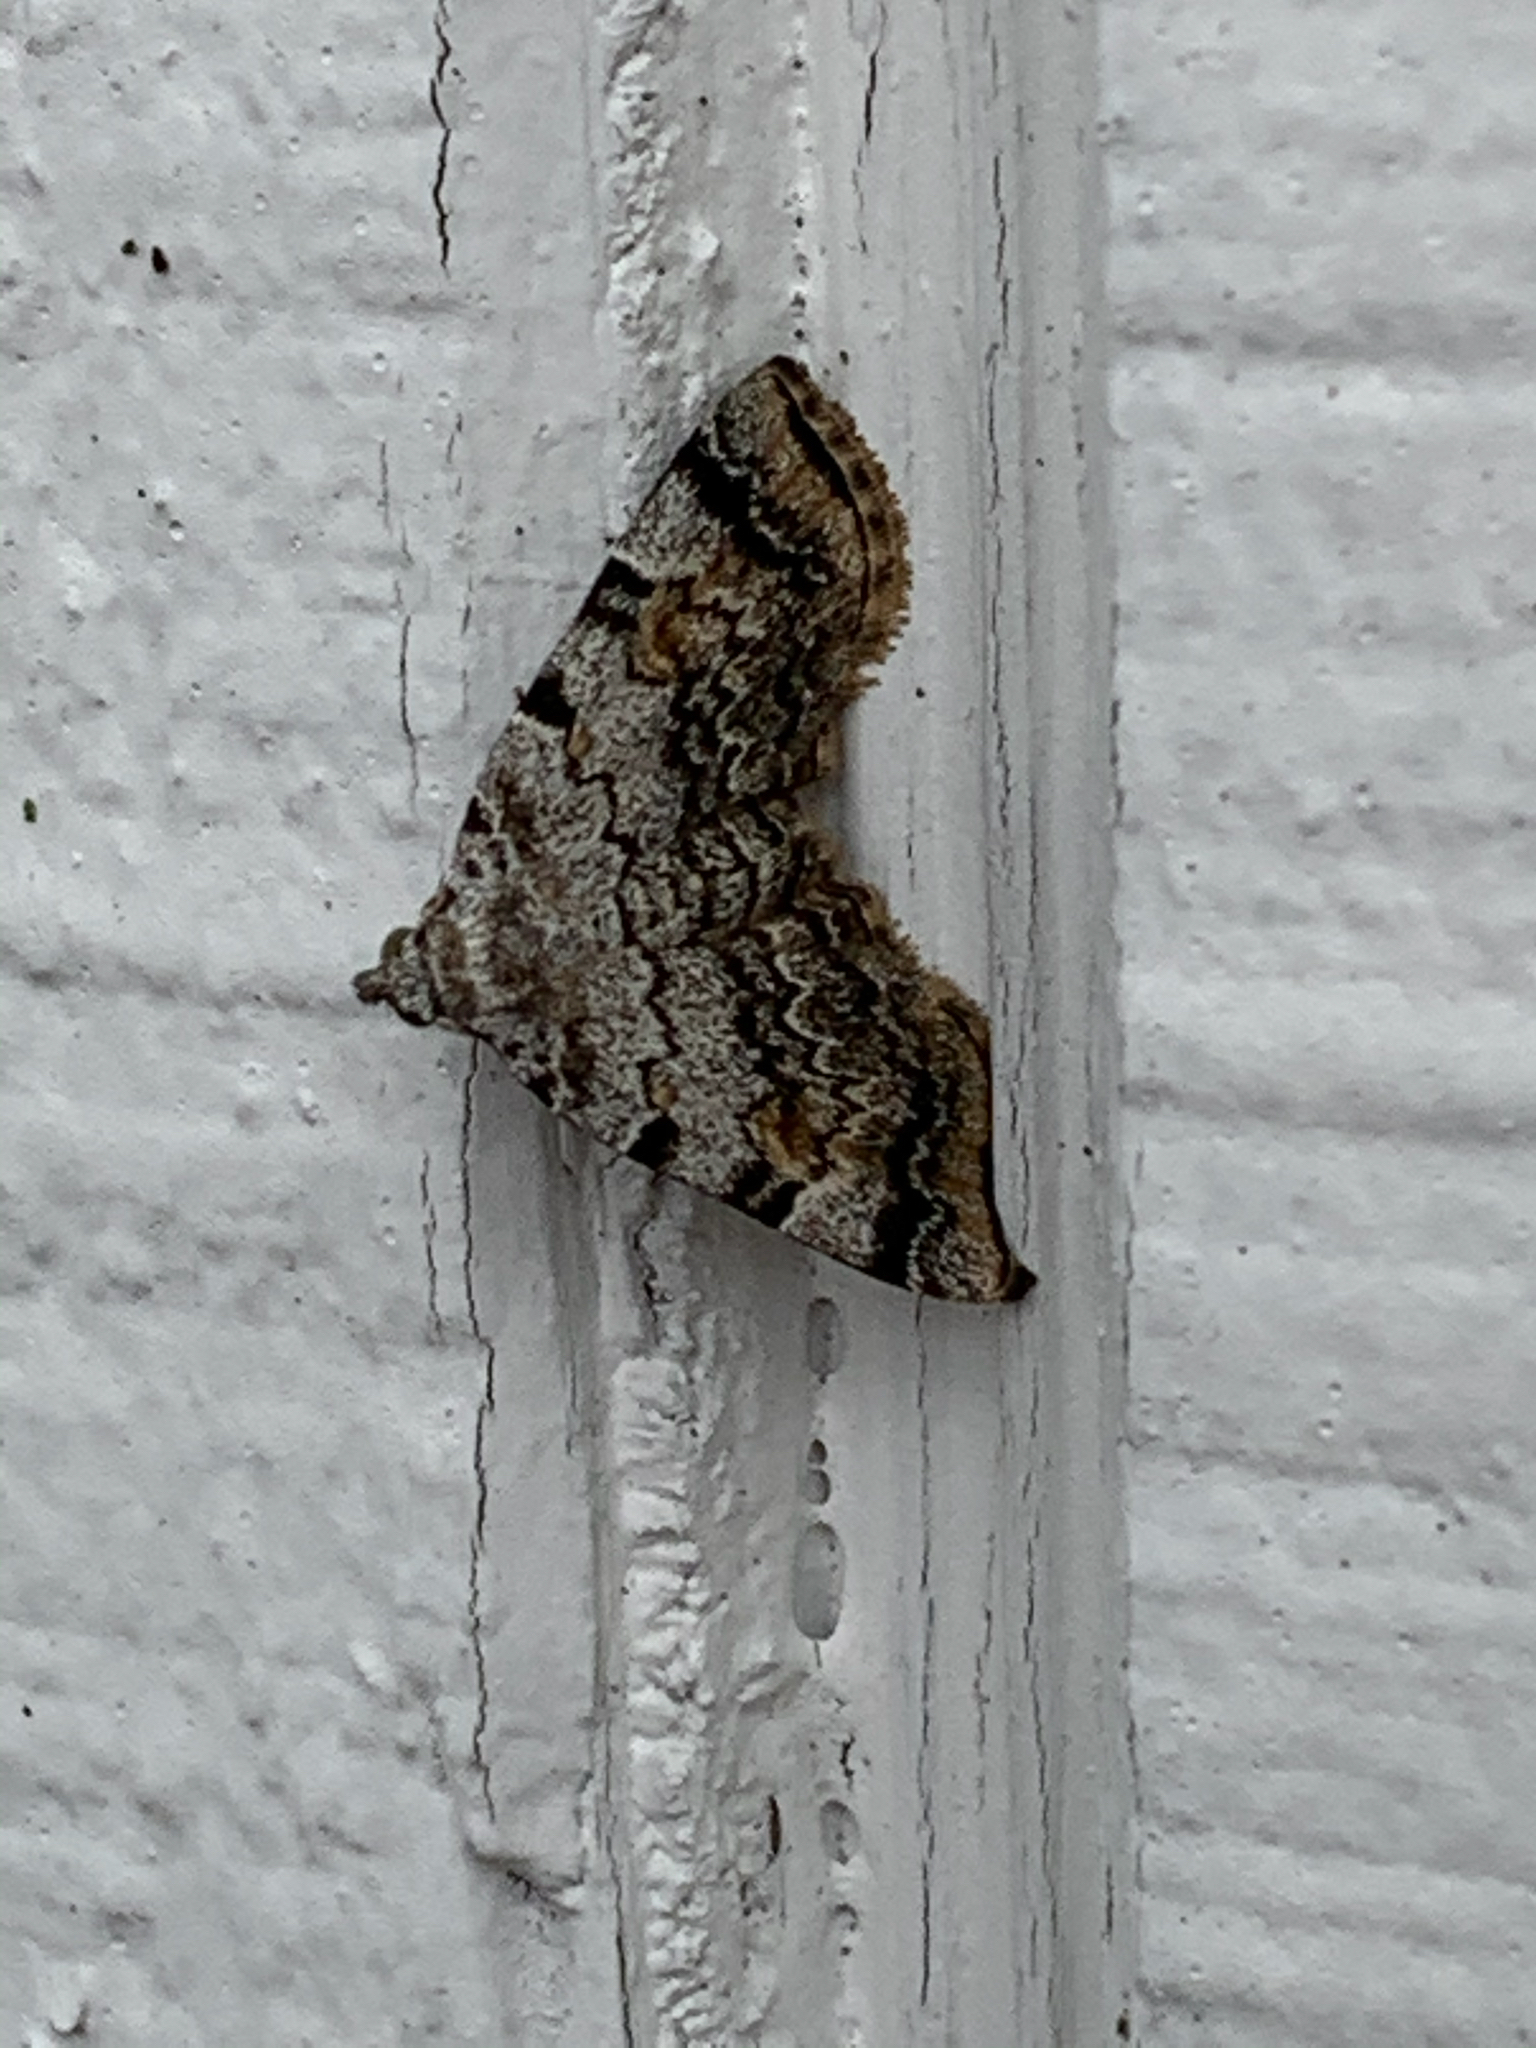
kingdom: Animalia
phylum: Arthropoda
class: Insecta
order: Lepidoptera
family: Erebidae
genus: Idia
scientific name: Idia americalis
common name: American idia moth
